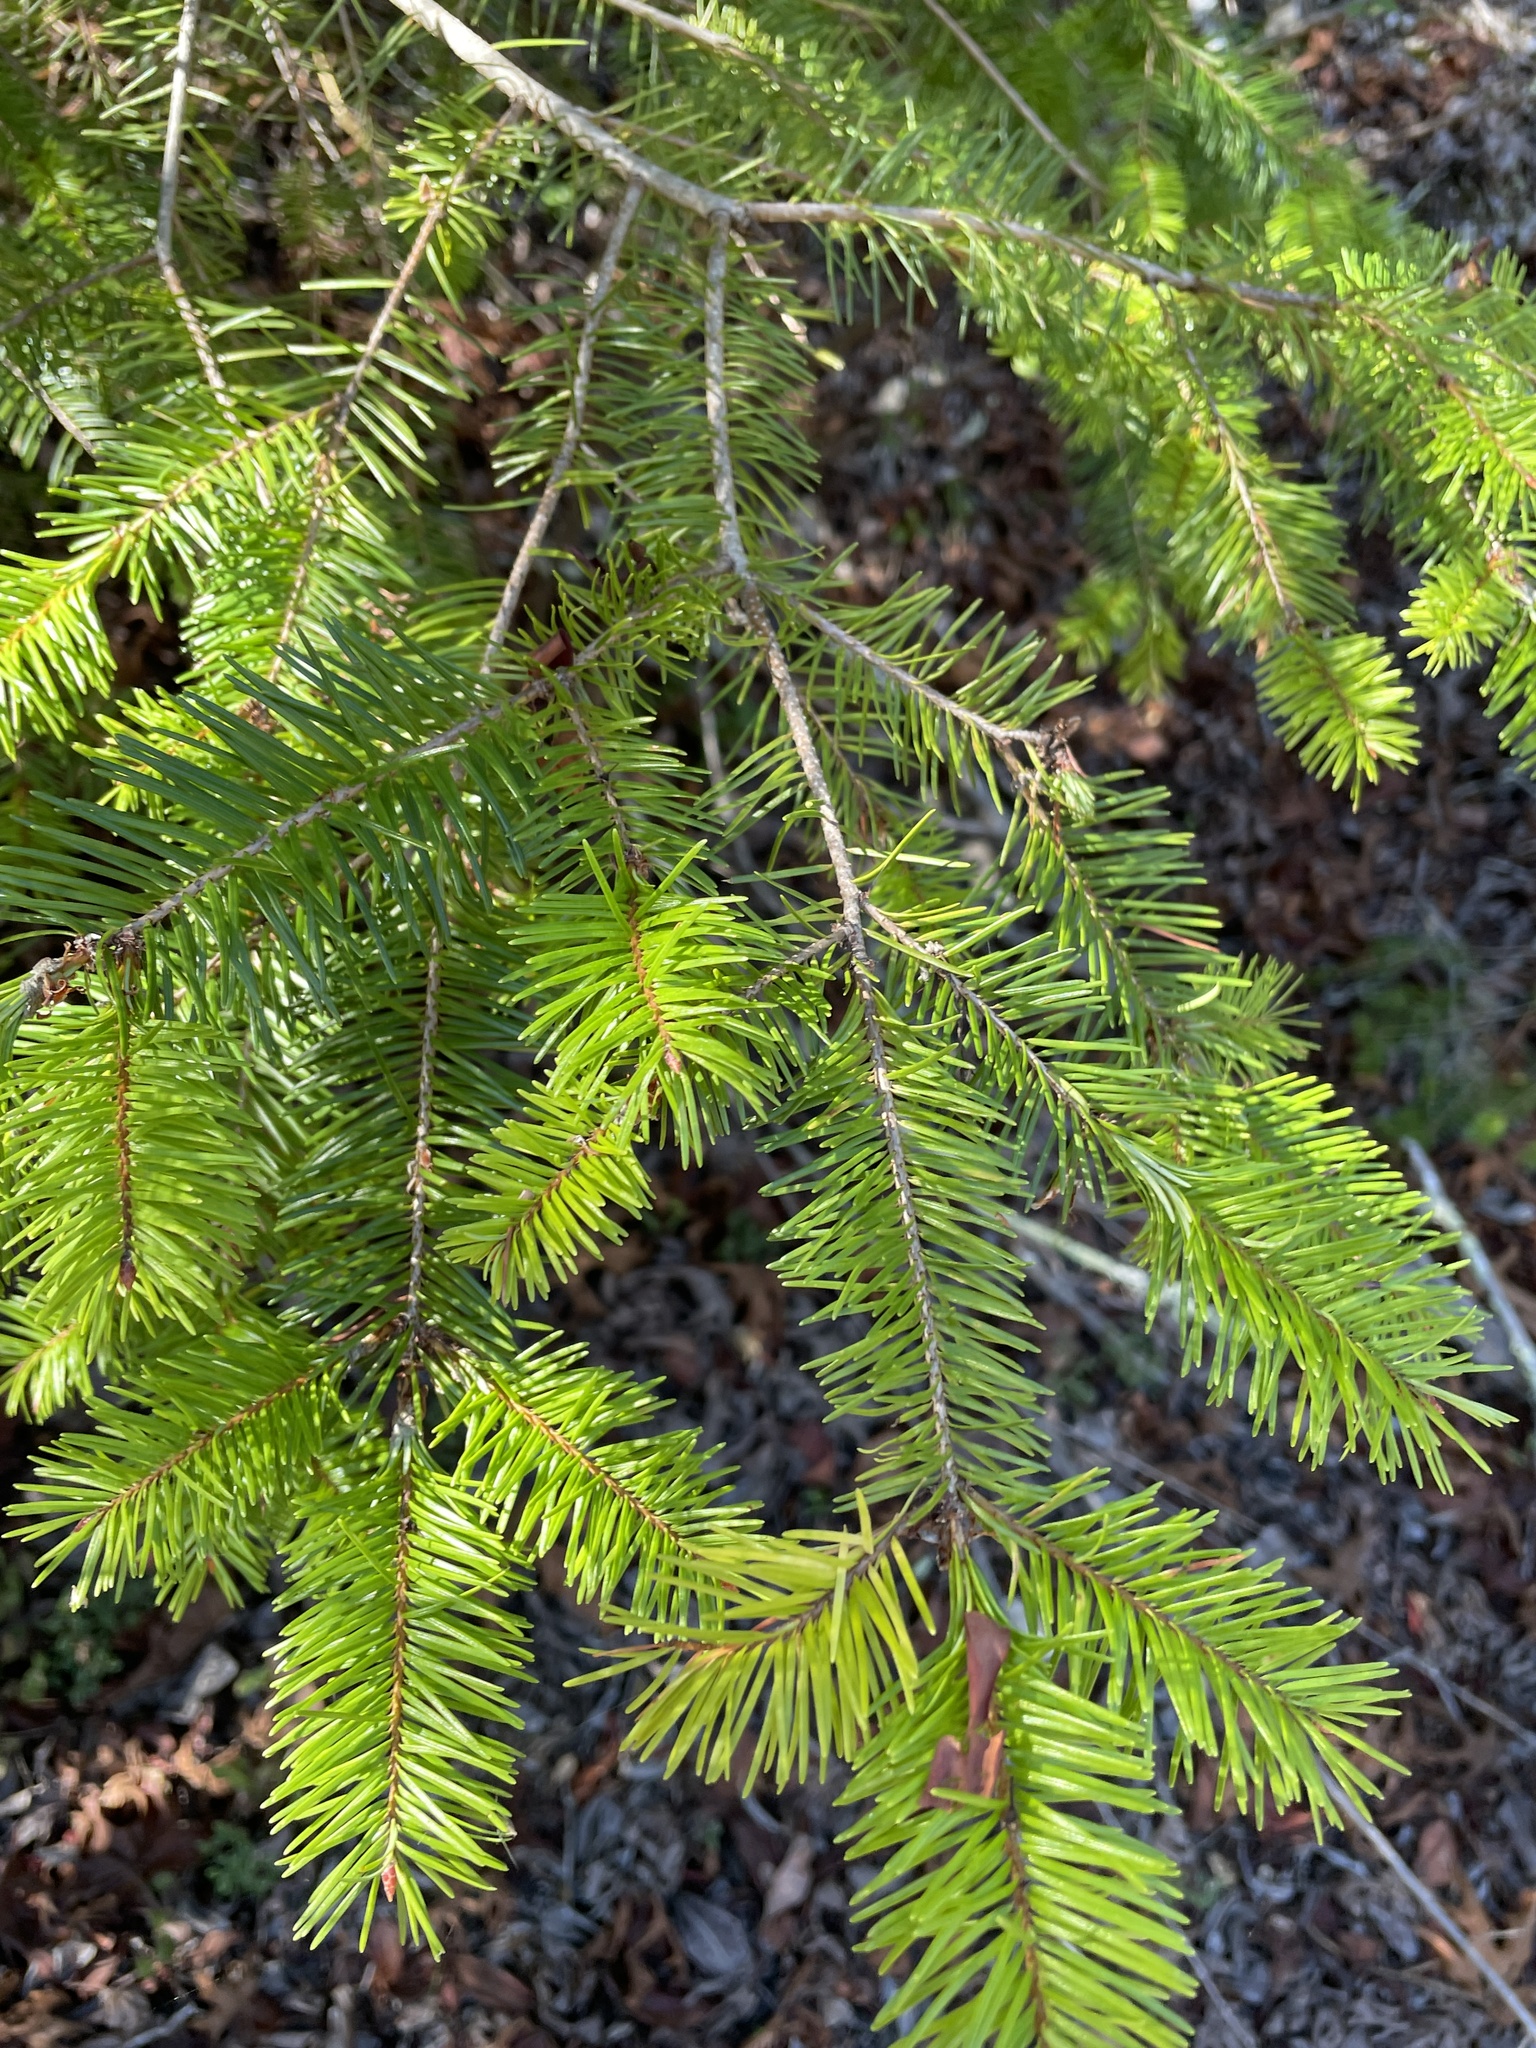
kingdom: Plantae
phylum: Tracheophyta
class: Pinopsida
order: Pinales
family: Pinaceae
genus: Pseudotsuga
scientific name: Pseudotsuga menziesii
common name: Douglas fir
